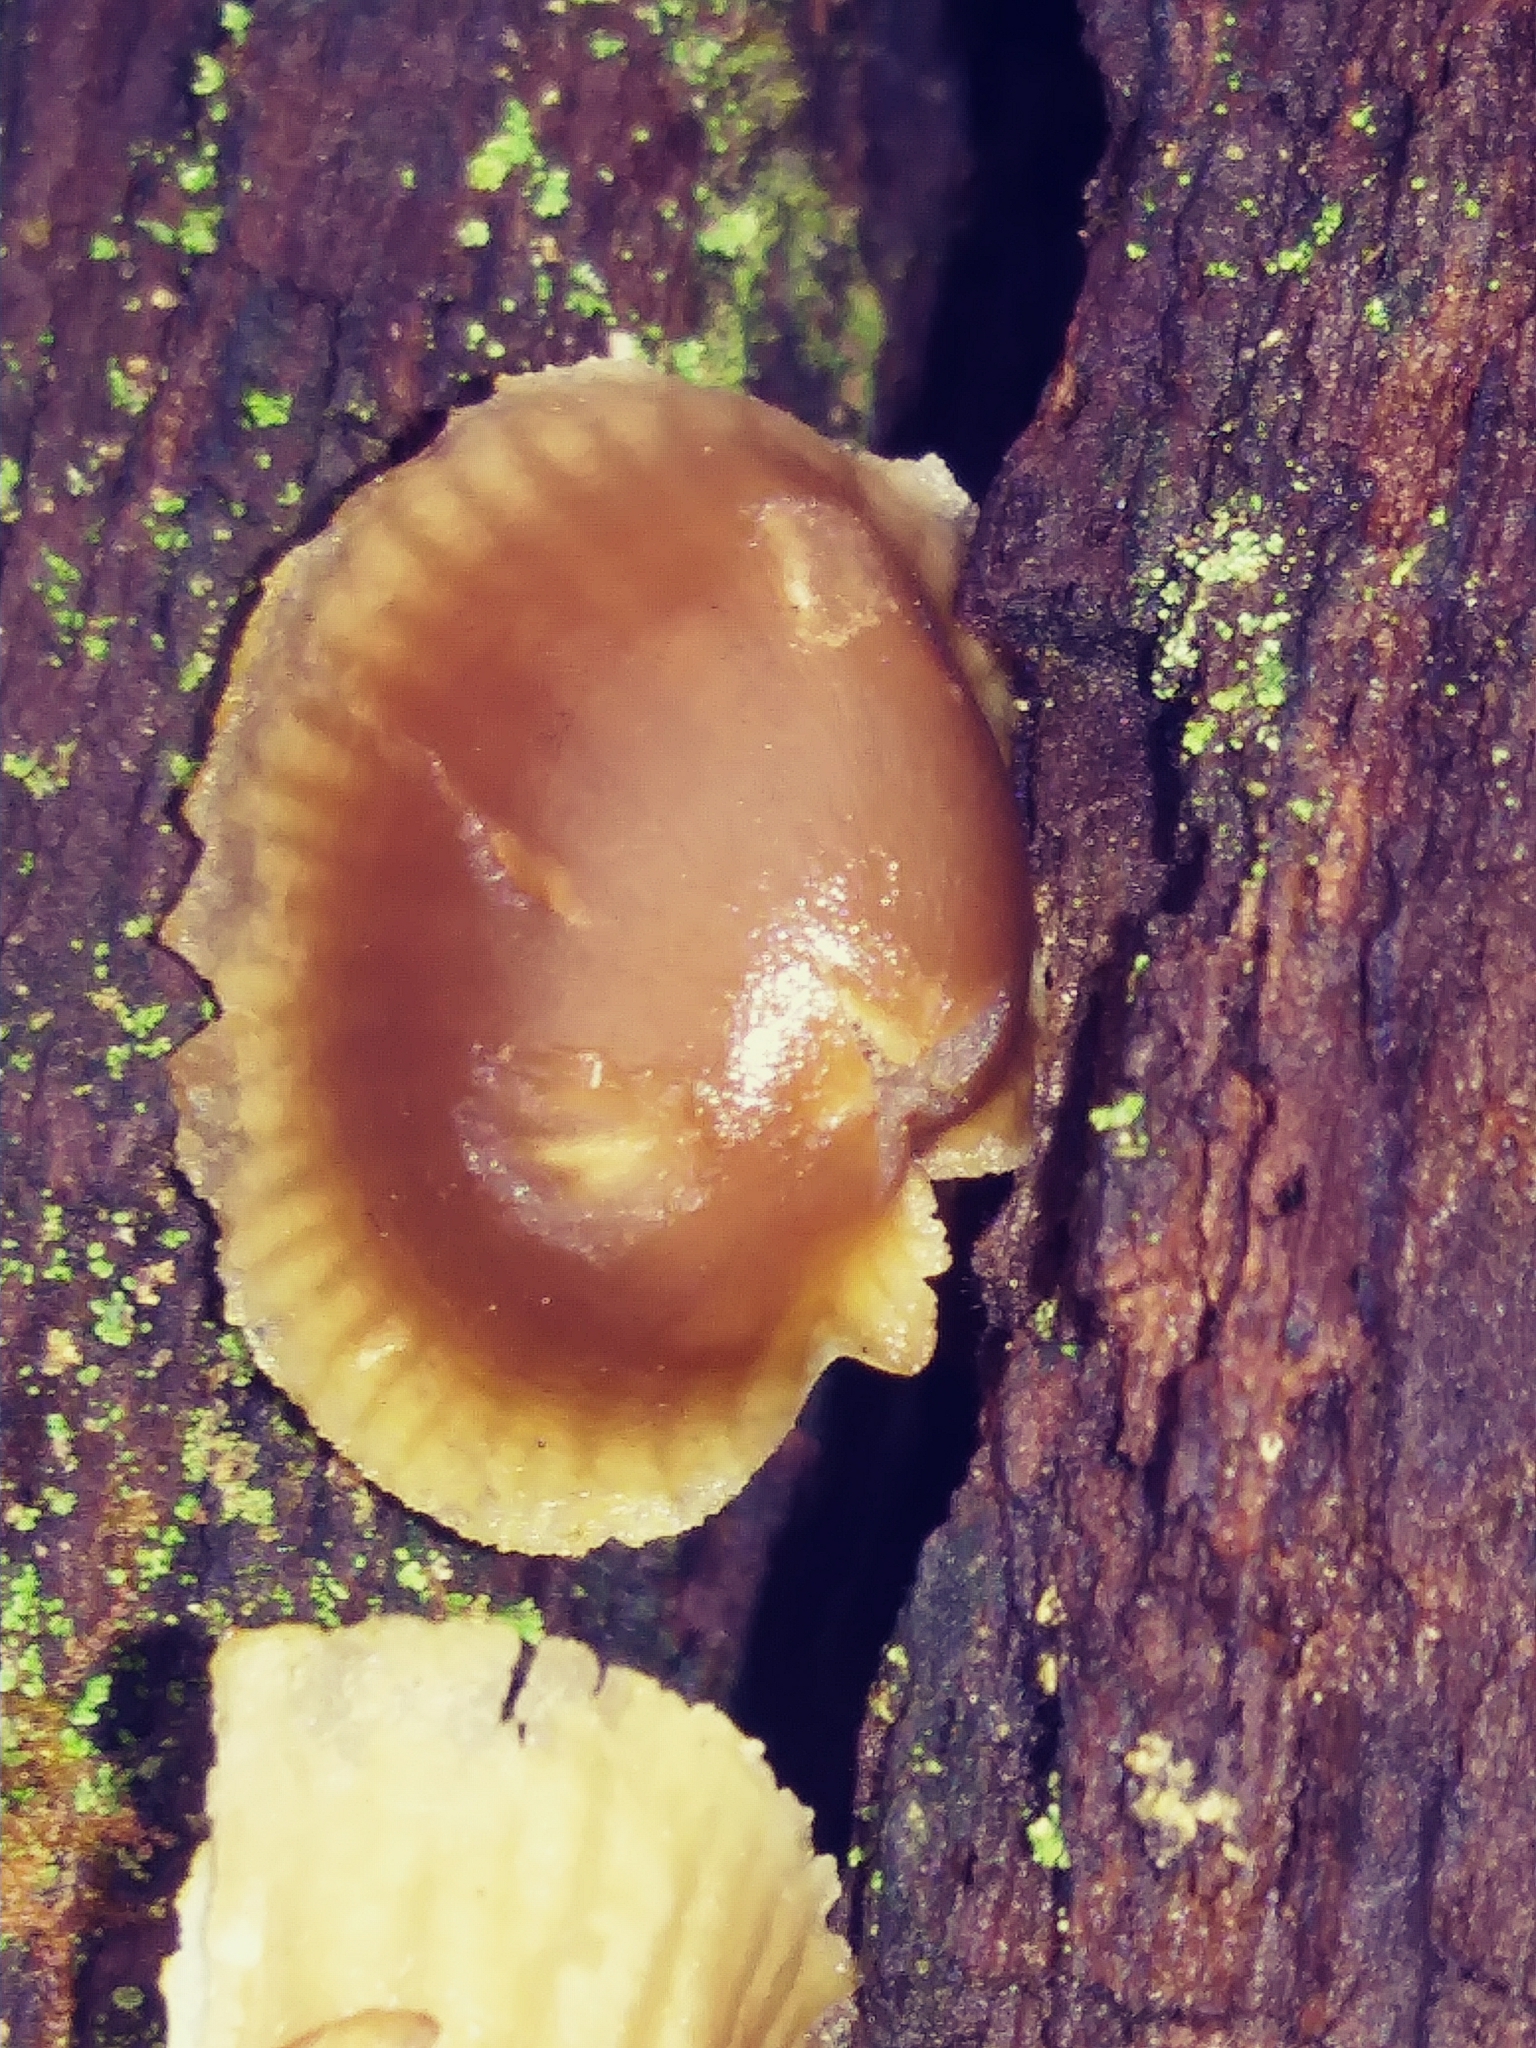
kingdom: Fungi
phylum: Basidiomycota
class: Agaricomycetes
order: Agaricales
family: Mycenaceae
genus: Mycena
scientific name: Mycena atkinsoniana
